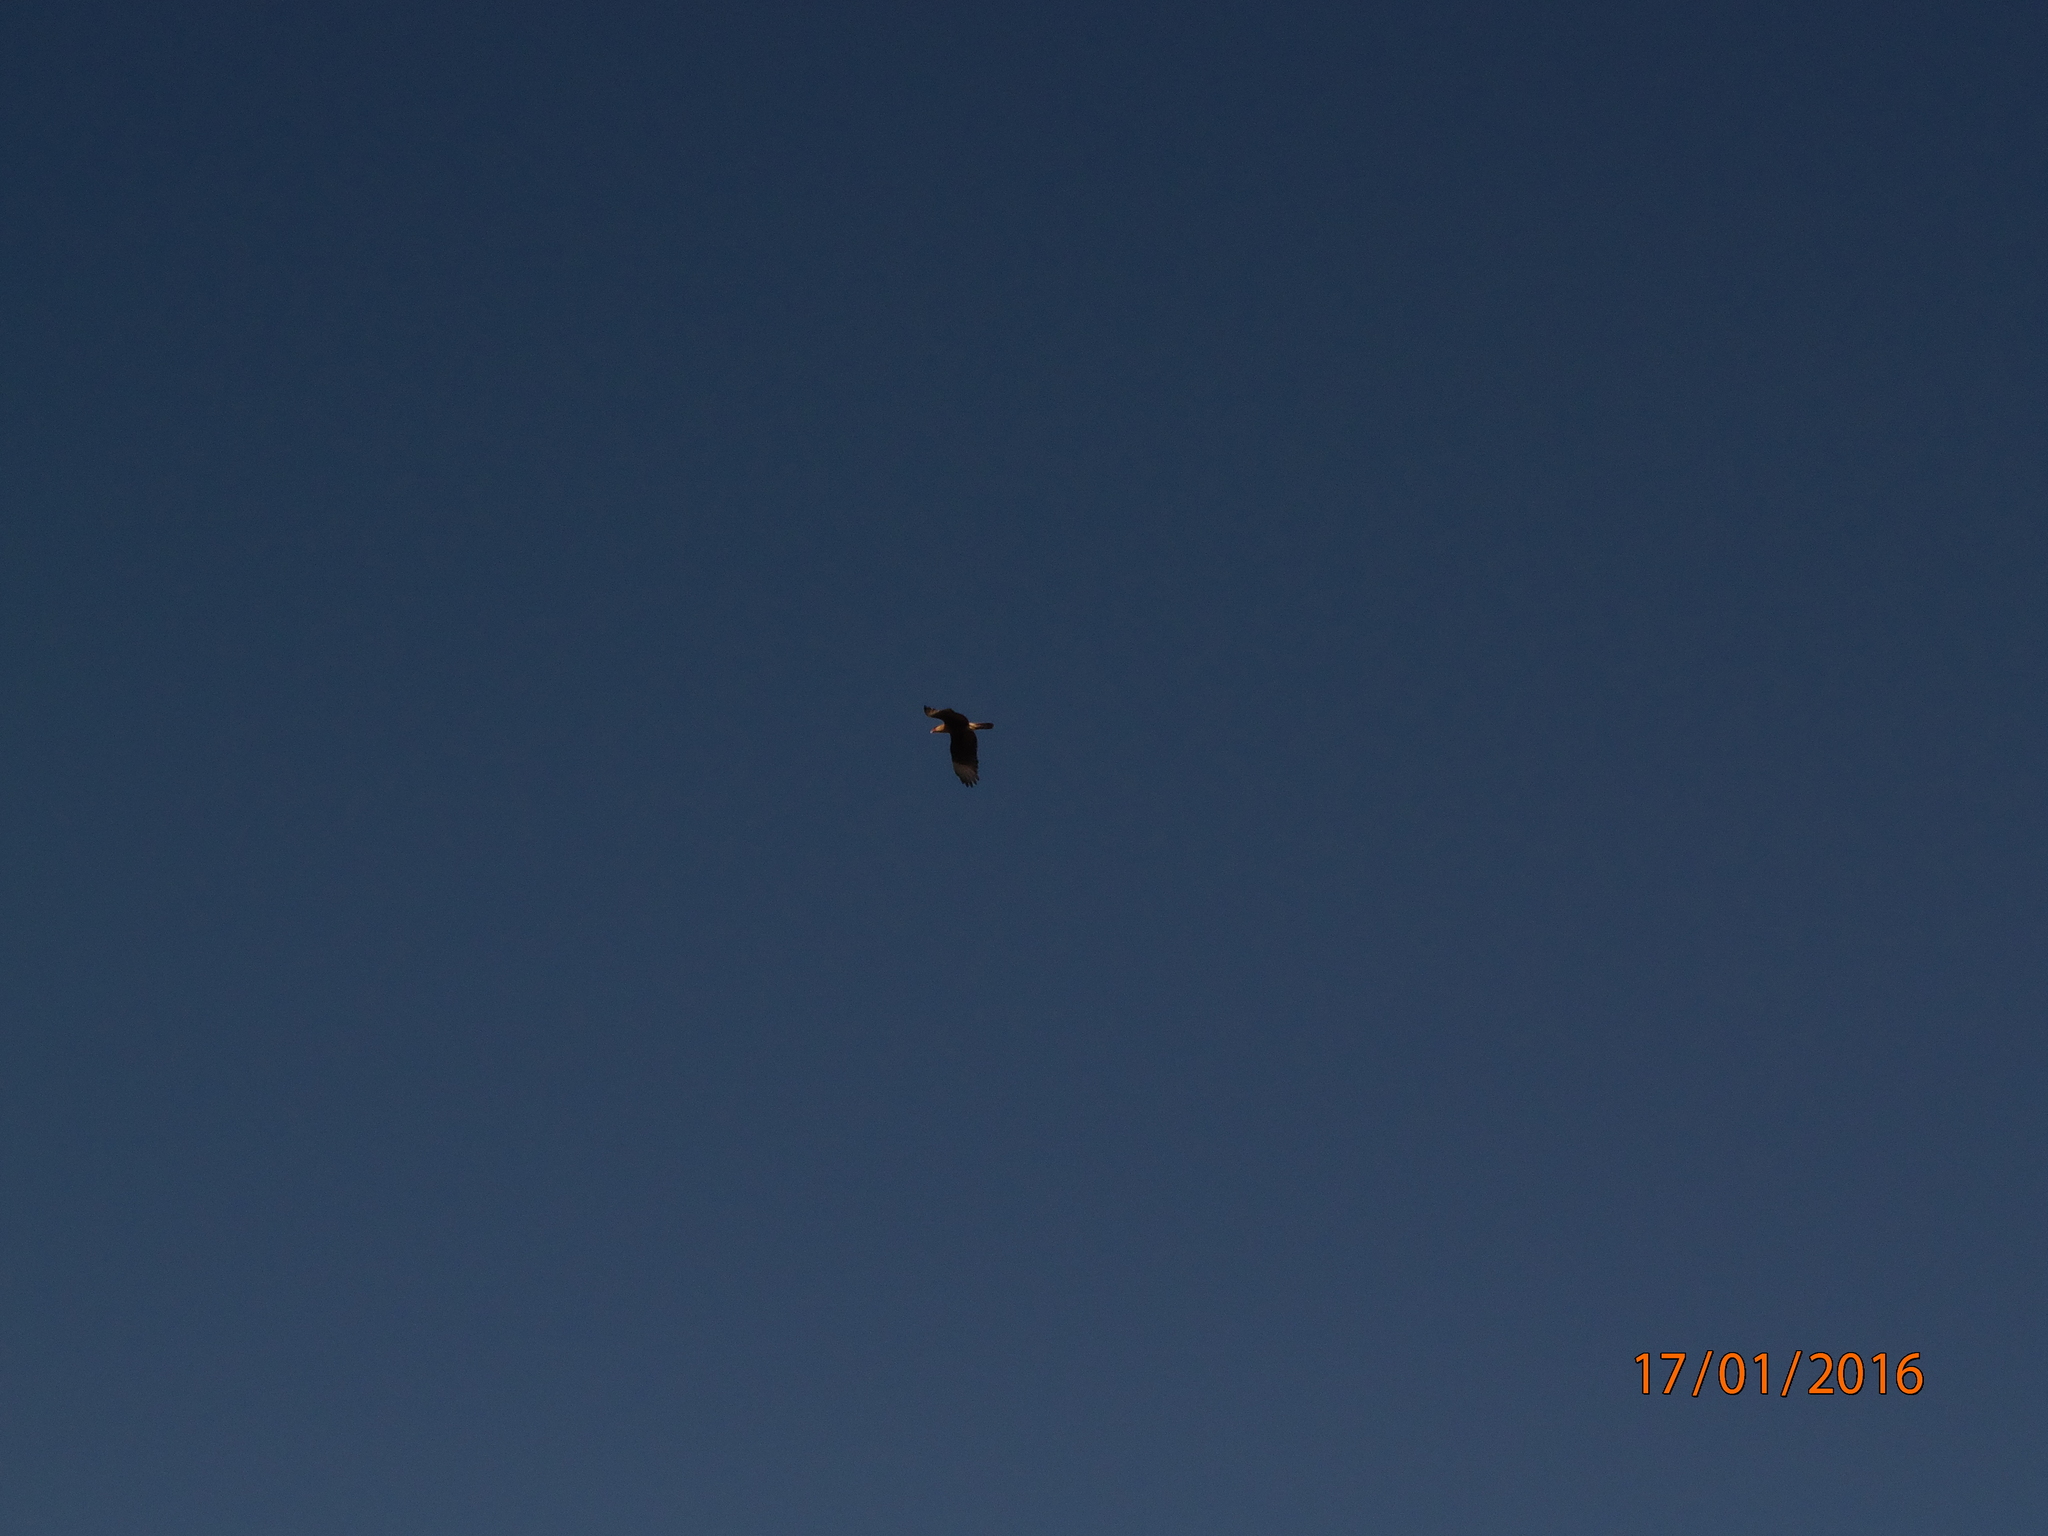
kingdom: Animalia
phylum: Chordata
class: Aves
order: Falconiformes
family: Falconidae
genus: Caracara
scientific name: Caracara plancus
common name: Southern caracara
